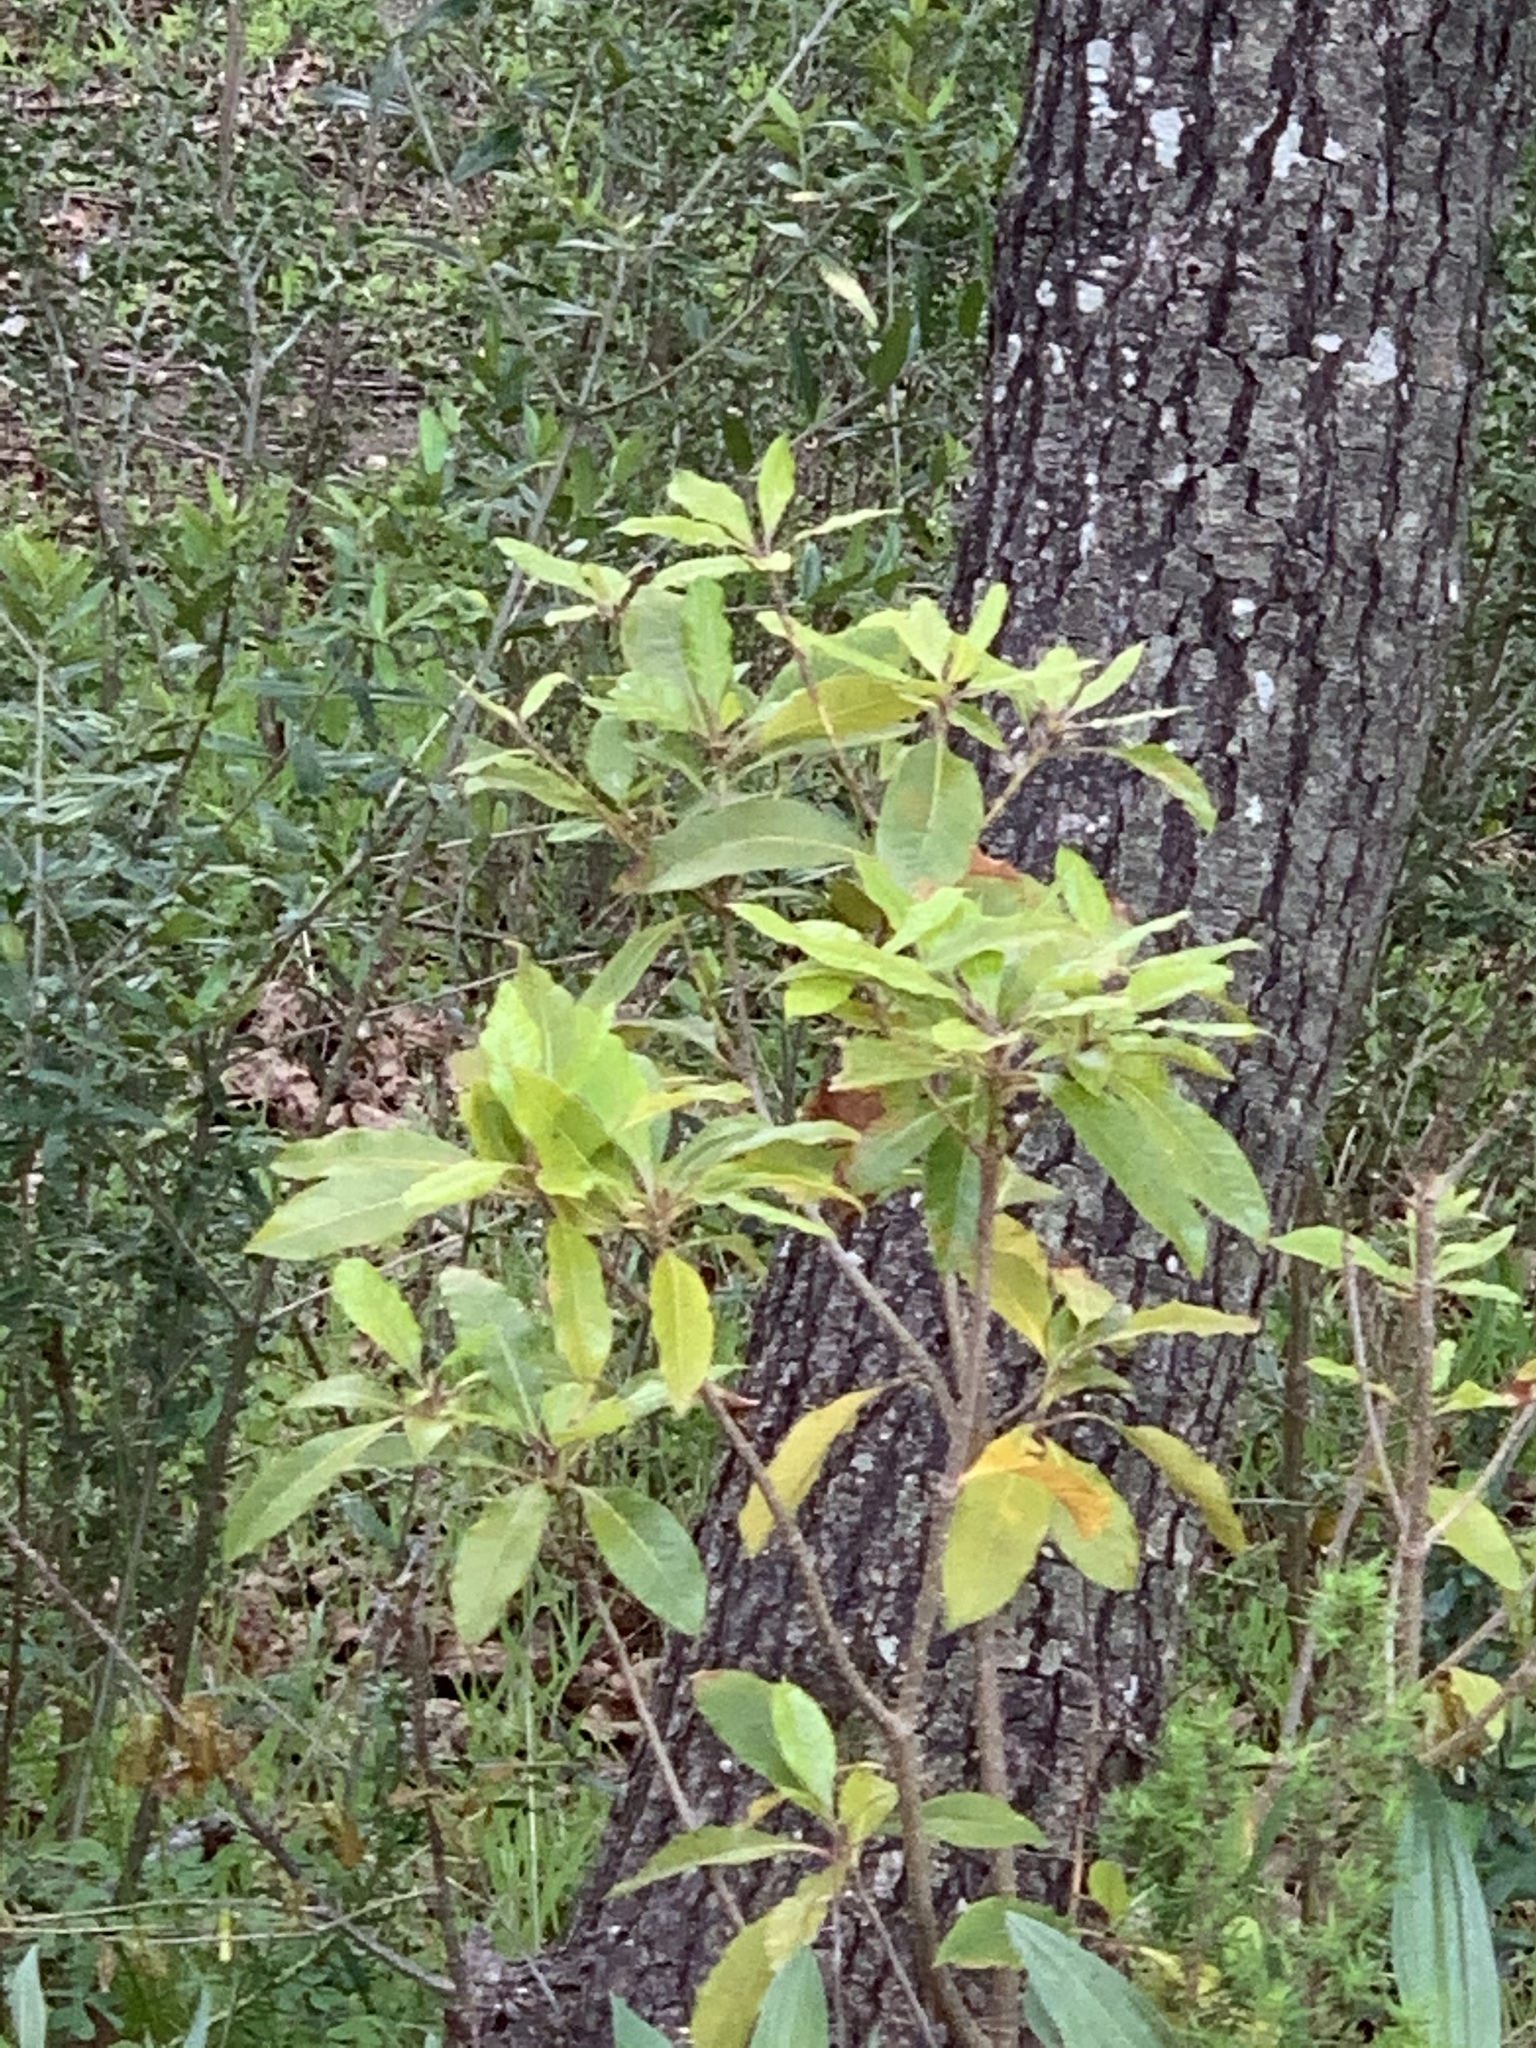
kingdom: Plantae
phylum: Tracheophyta
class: Magnoliopsida
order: Apiales
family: Pittosporaceae
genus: Pittosporum
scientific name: Pittosporum undulatum
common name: Australian cheesewood
